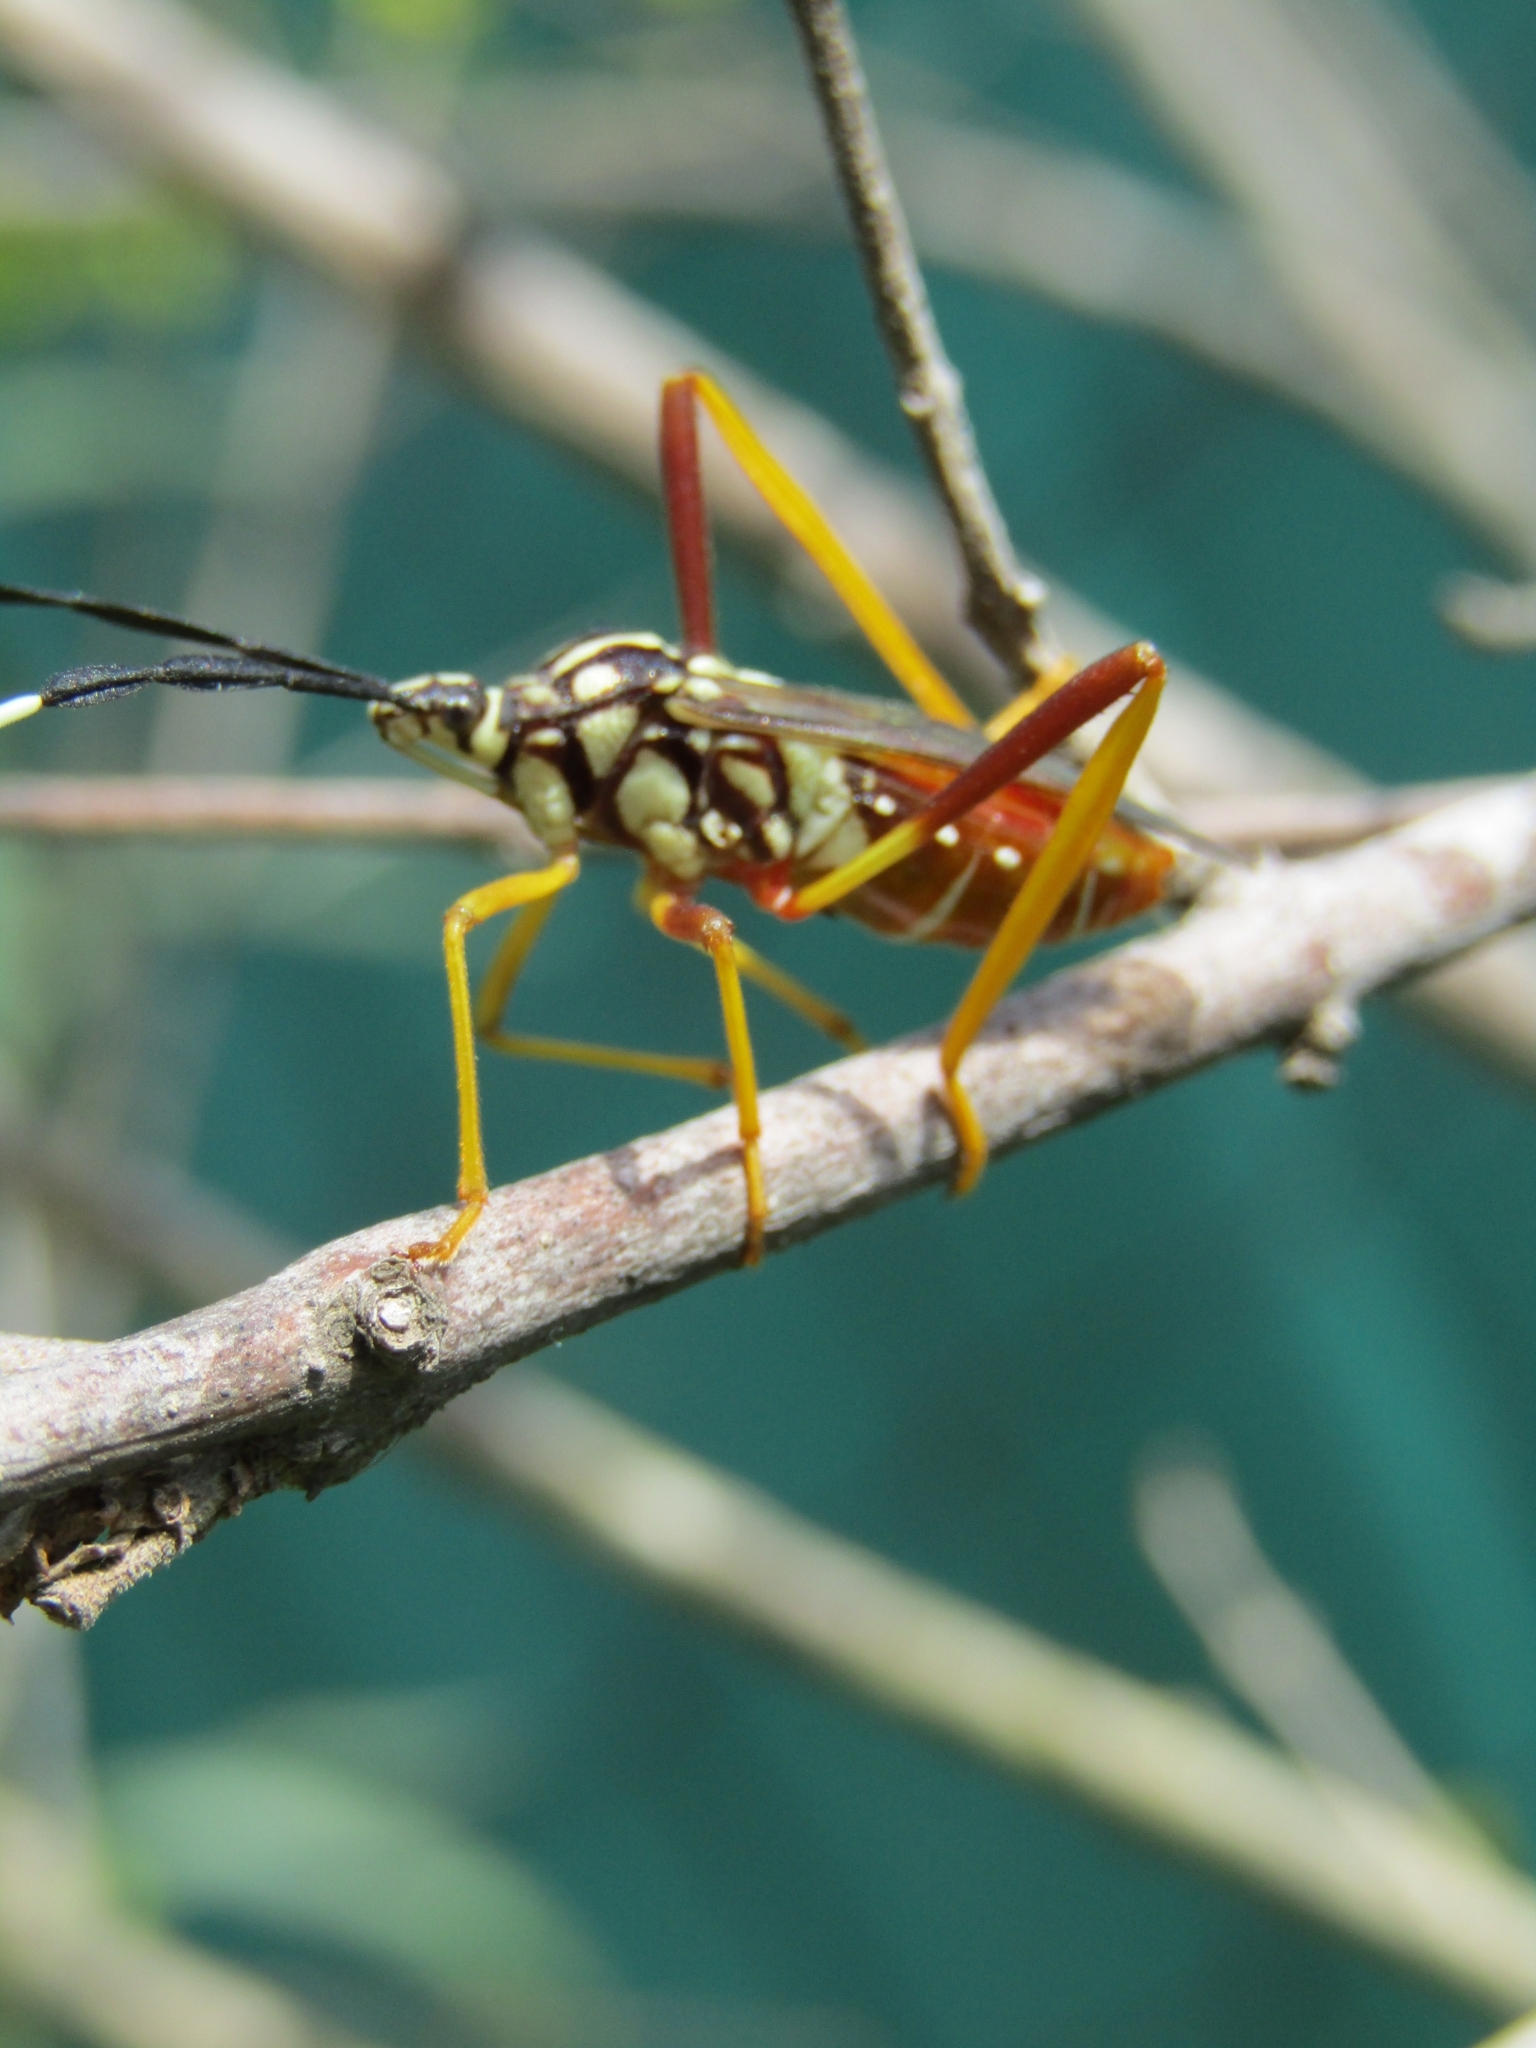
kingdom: Animalia
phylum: Arthropoda
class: Insecta
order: Hemiptera
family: Coreidae
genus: Holhymenia
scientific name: Holhymenia histrio
